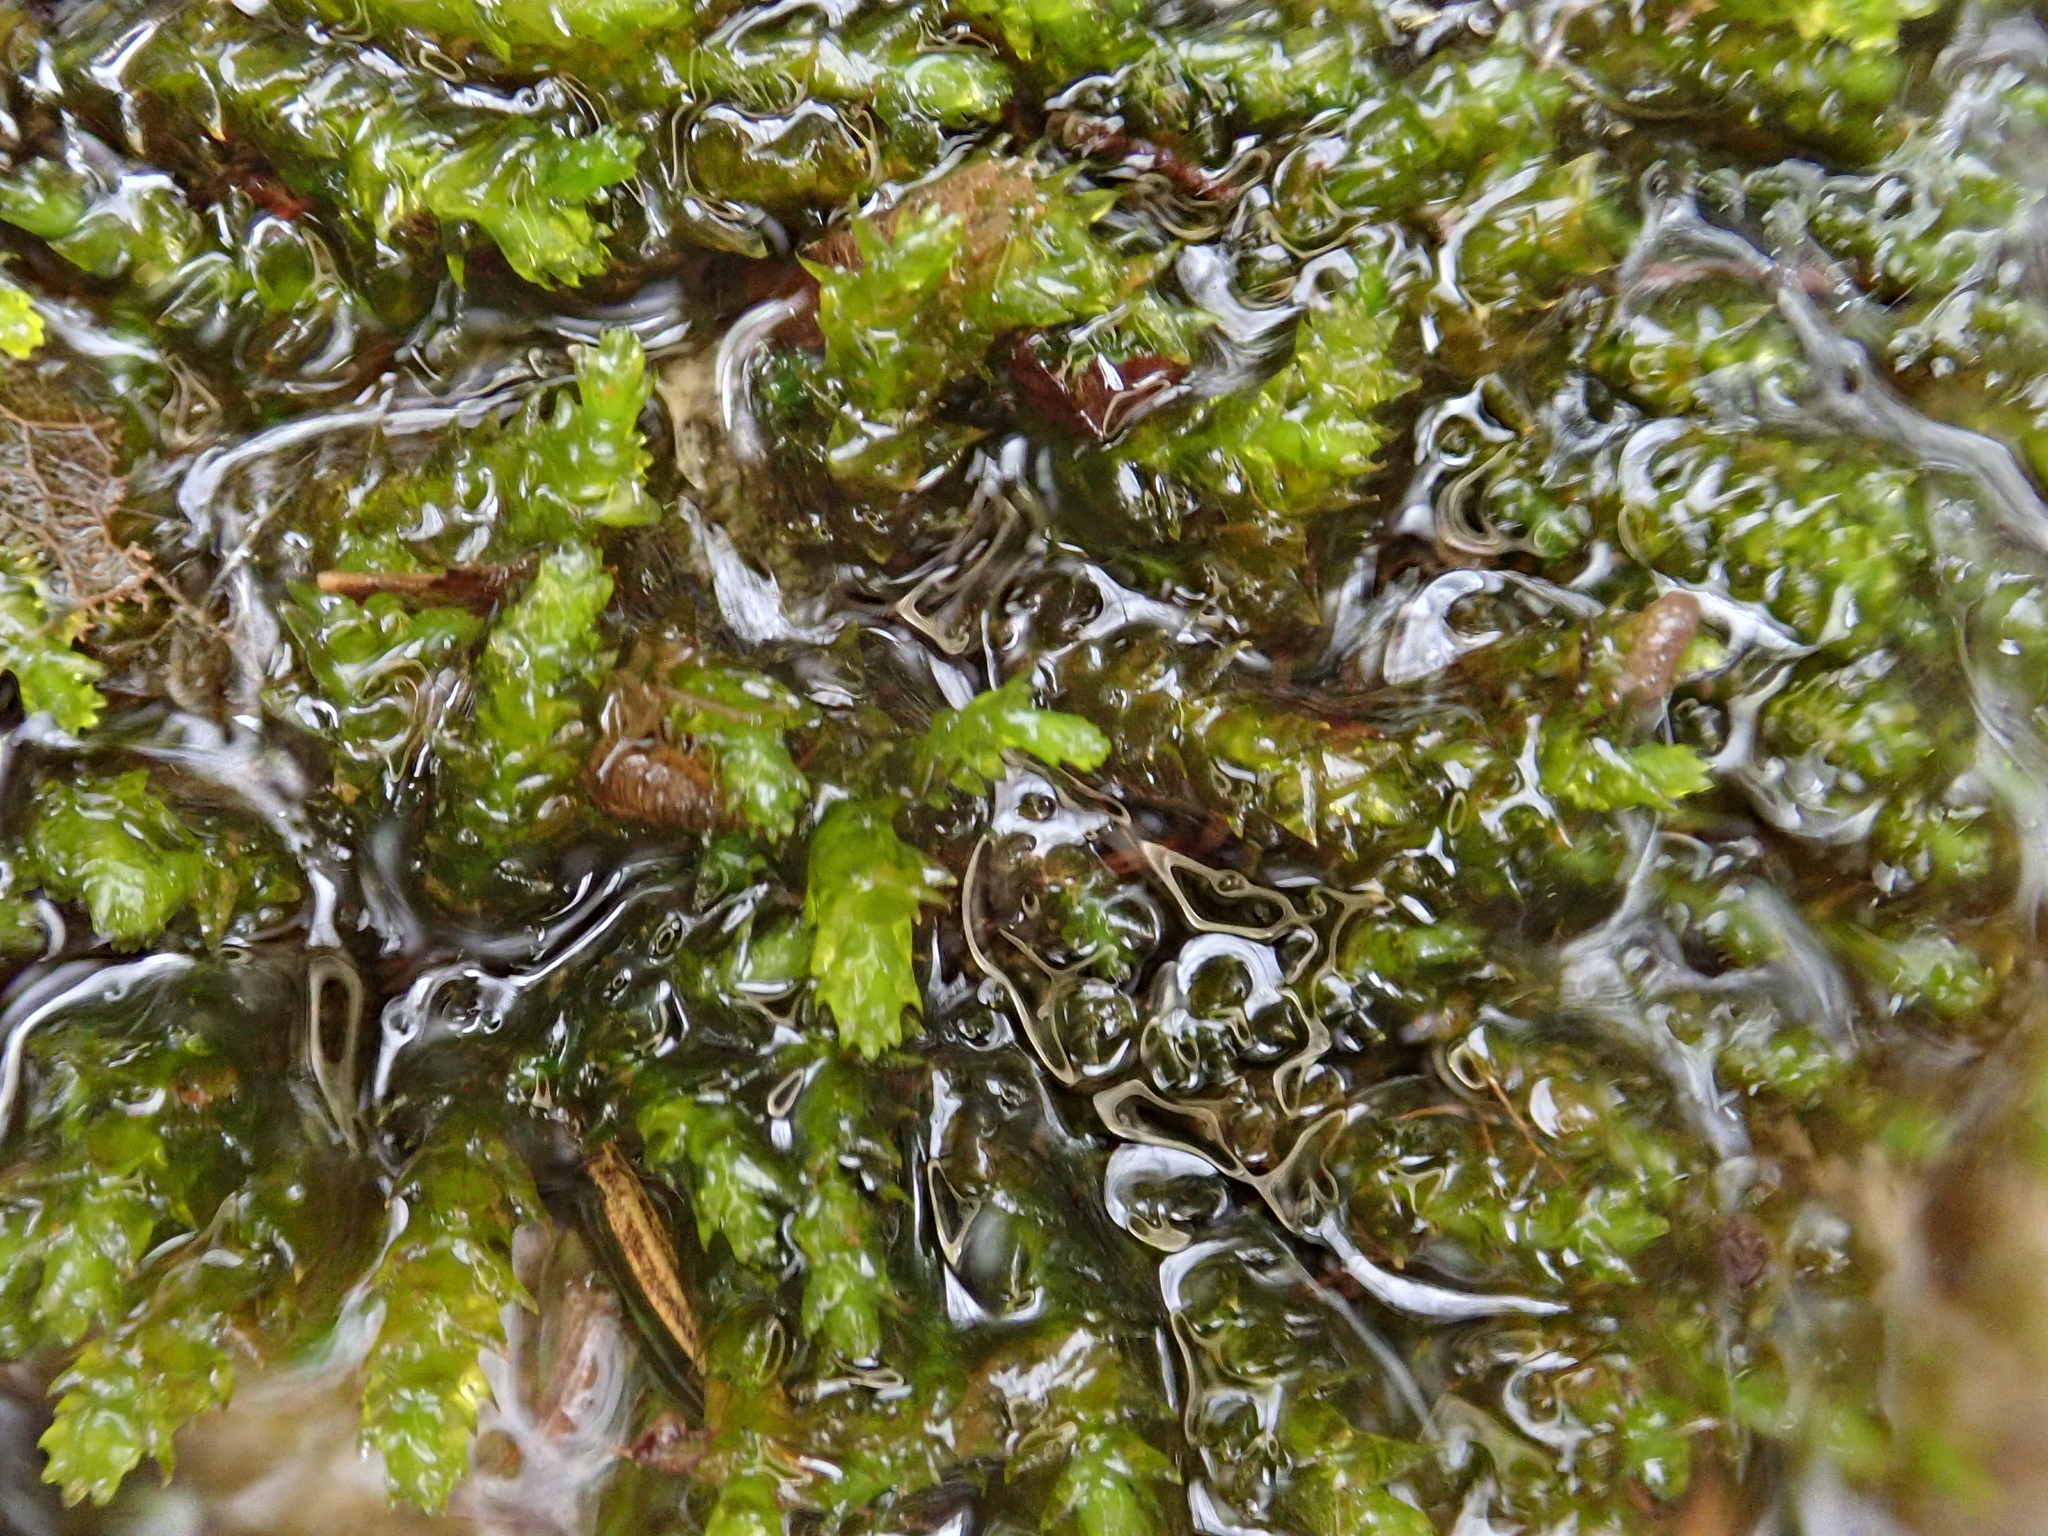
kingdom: Plantae
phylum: Bryophyta
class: Bryopsida
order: Hypnales
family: Brachytheciaceae
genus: Rhynchostegium
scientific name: Rhynchostegium riparioides
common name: Platyhypnidium moss
